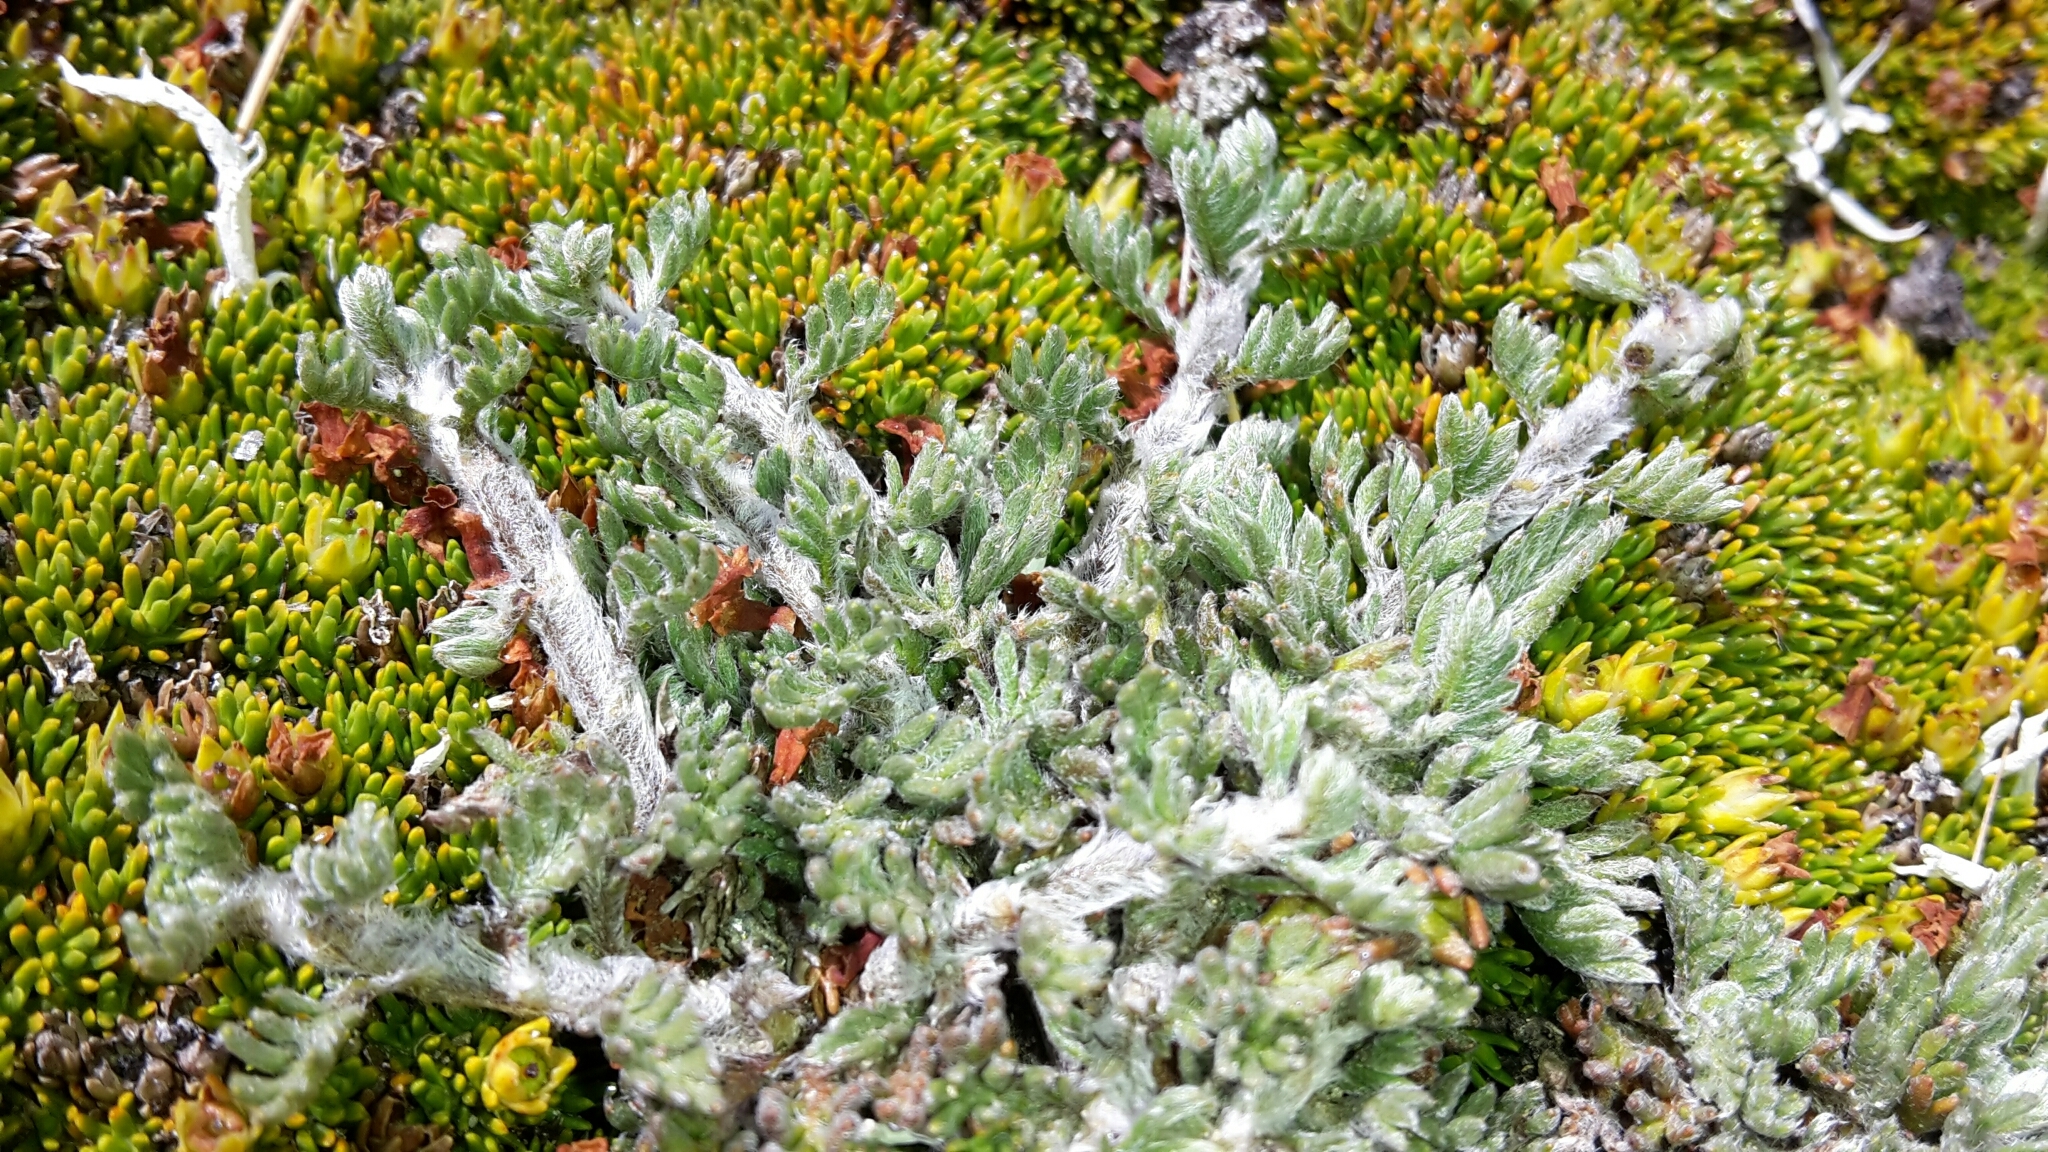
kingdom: Plantae
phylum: Tracheophyta
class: Magnoliopsida
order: Asterales
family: Asteraceae
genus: Leptinella
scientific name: Leptinella albida
